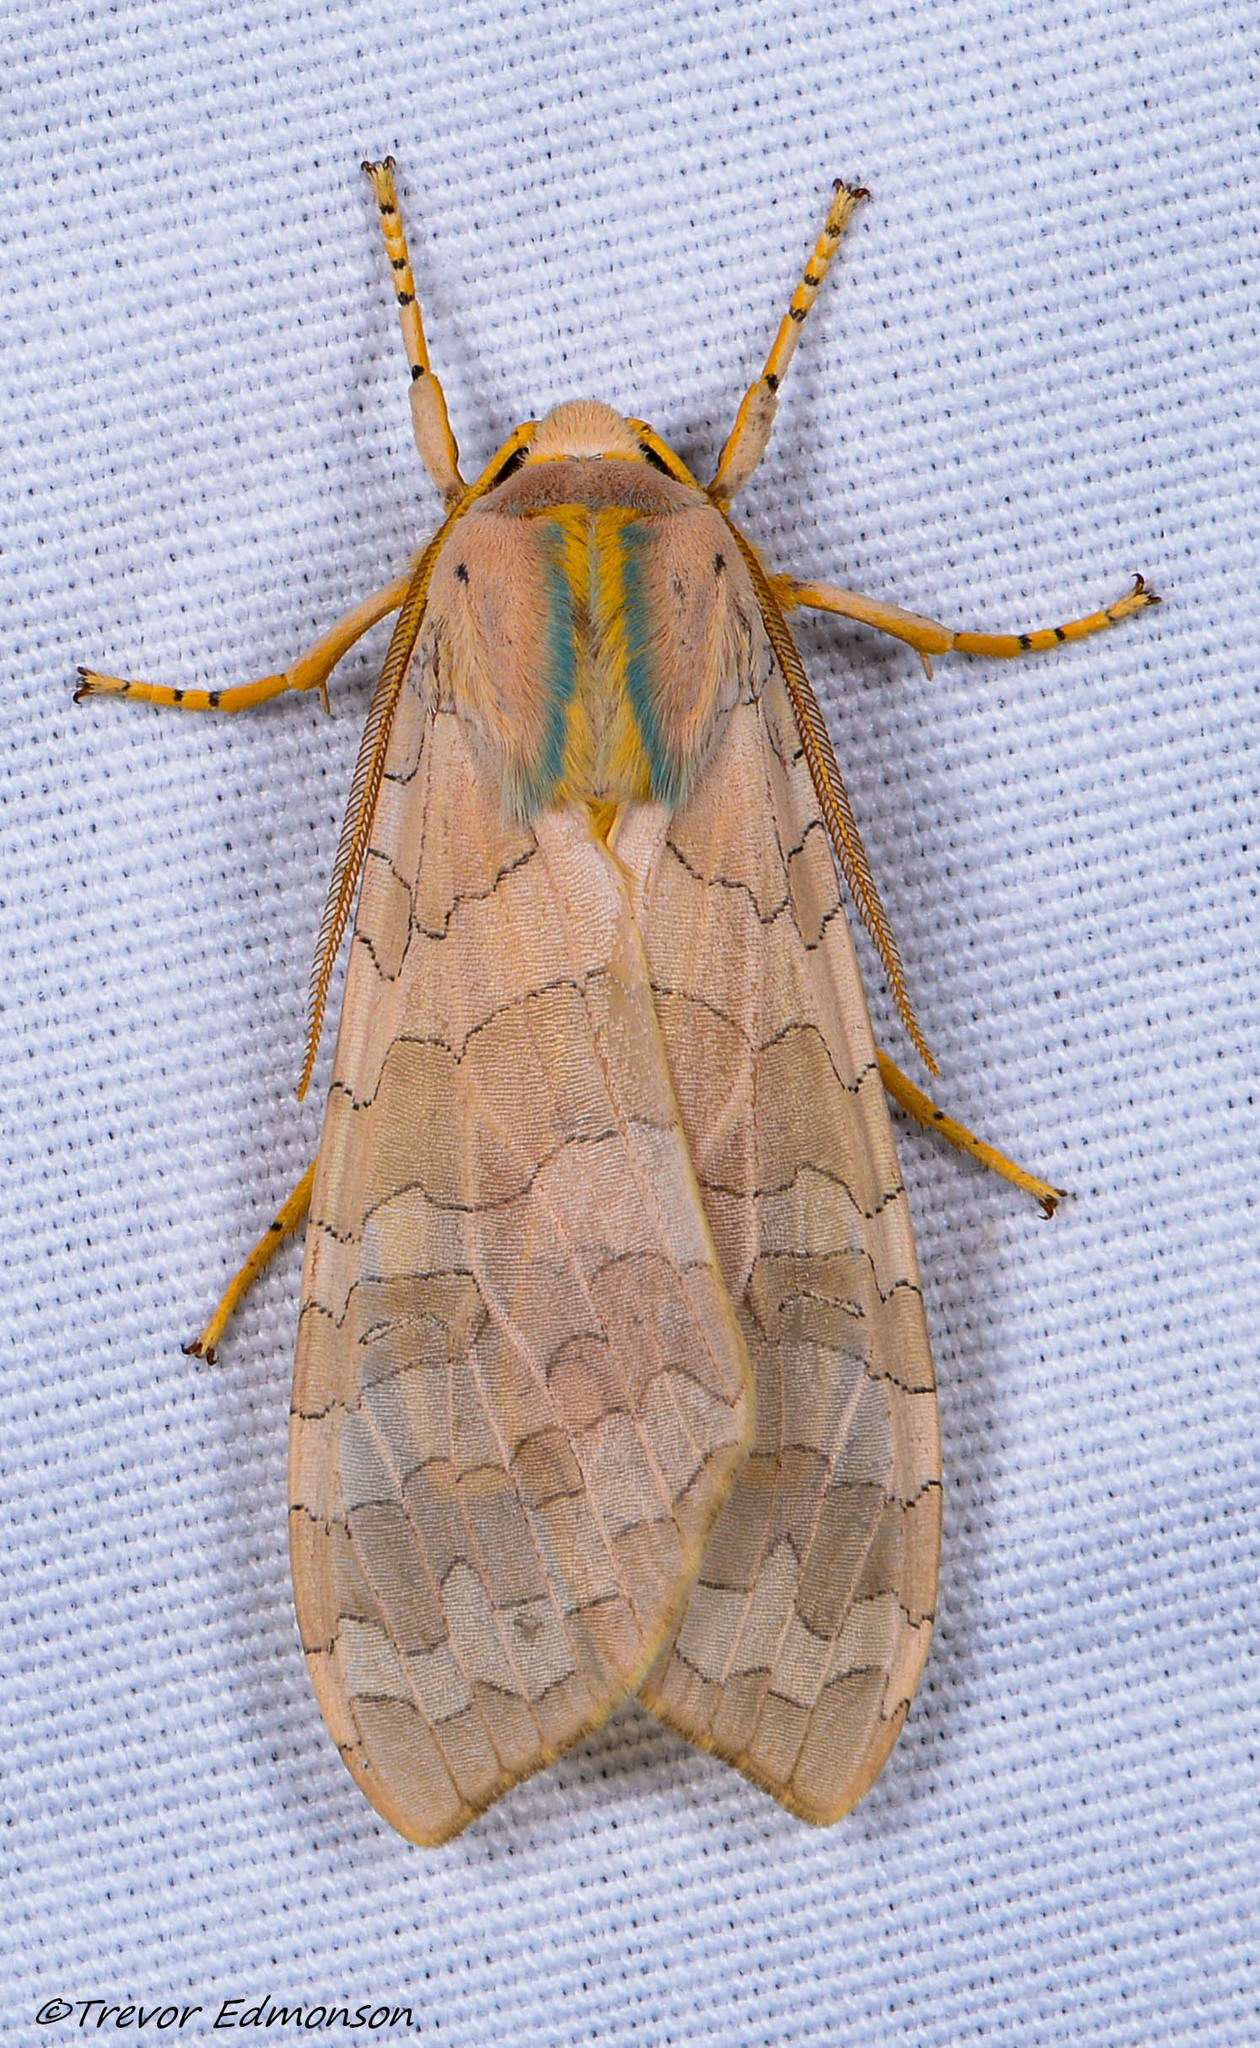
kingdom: Animalia
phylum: Arthropoda
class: Insecta
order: Lepidoptera
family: Erebidae
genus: Halysidota
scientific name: Halysidota
